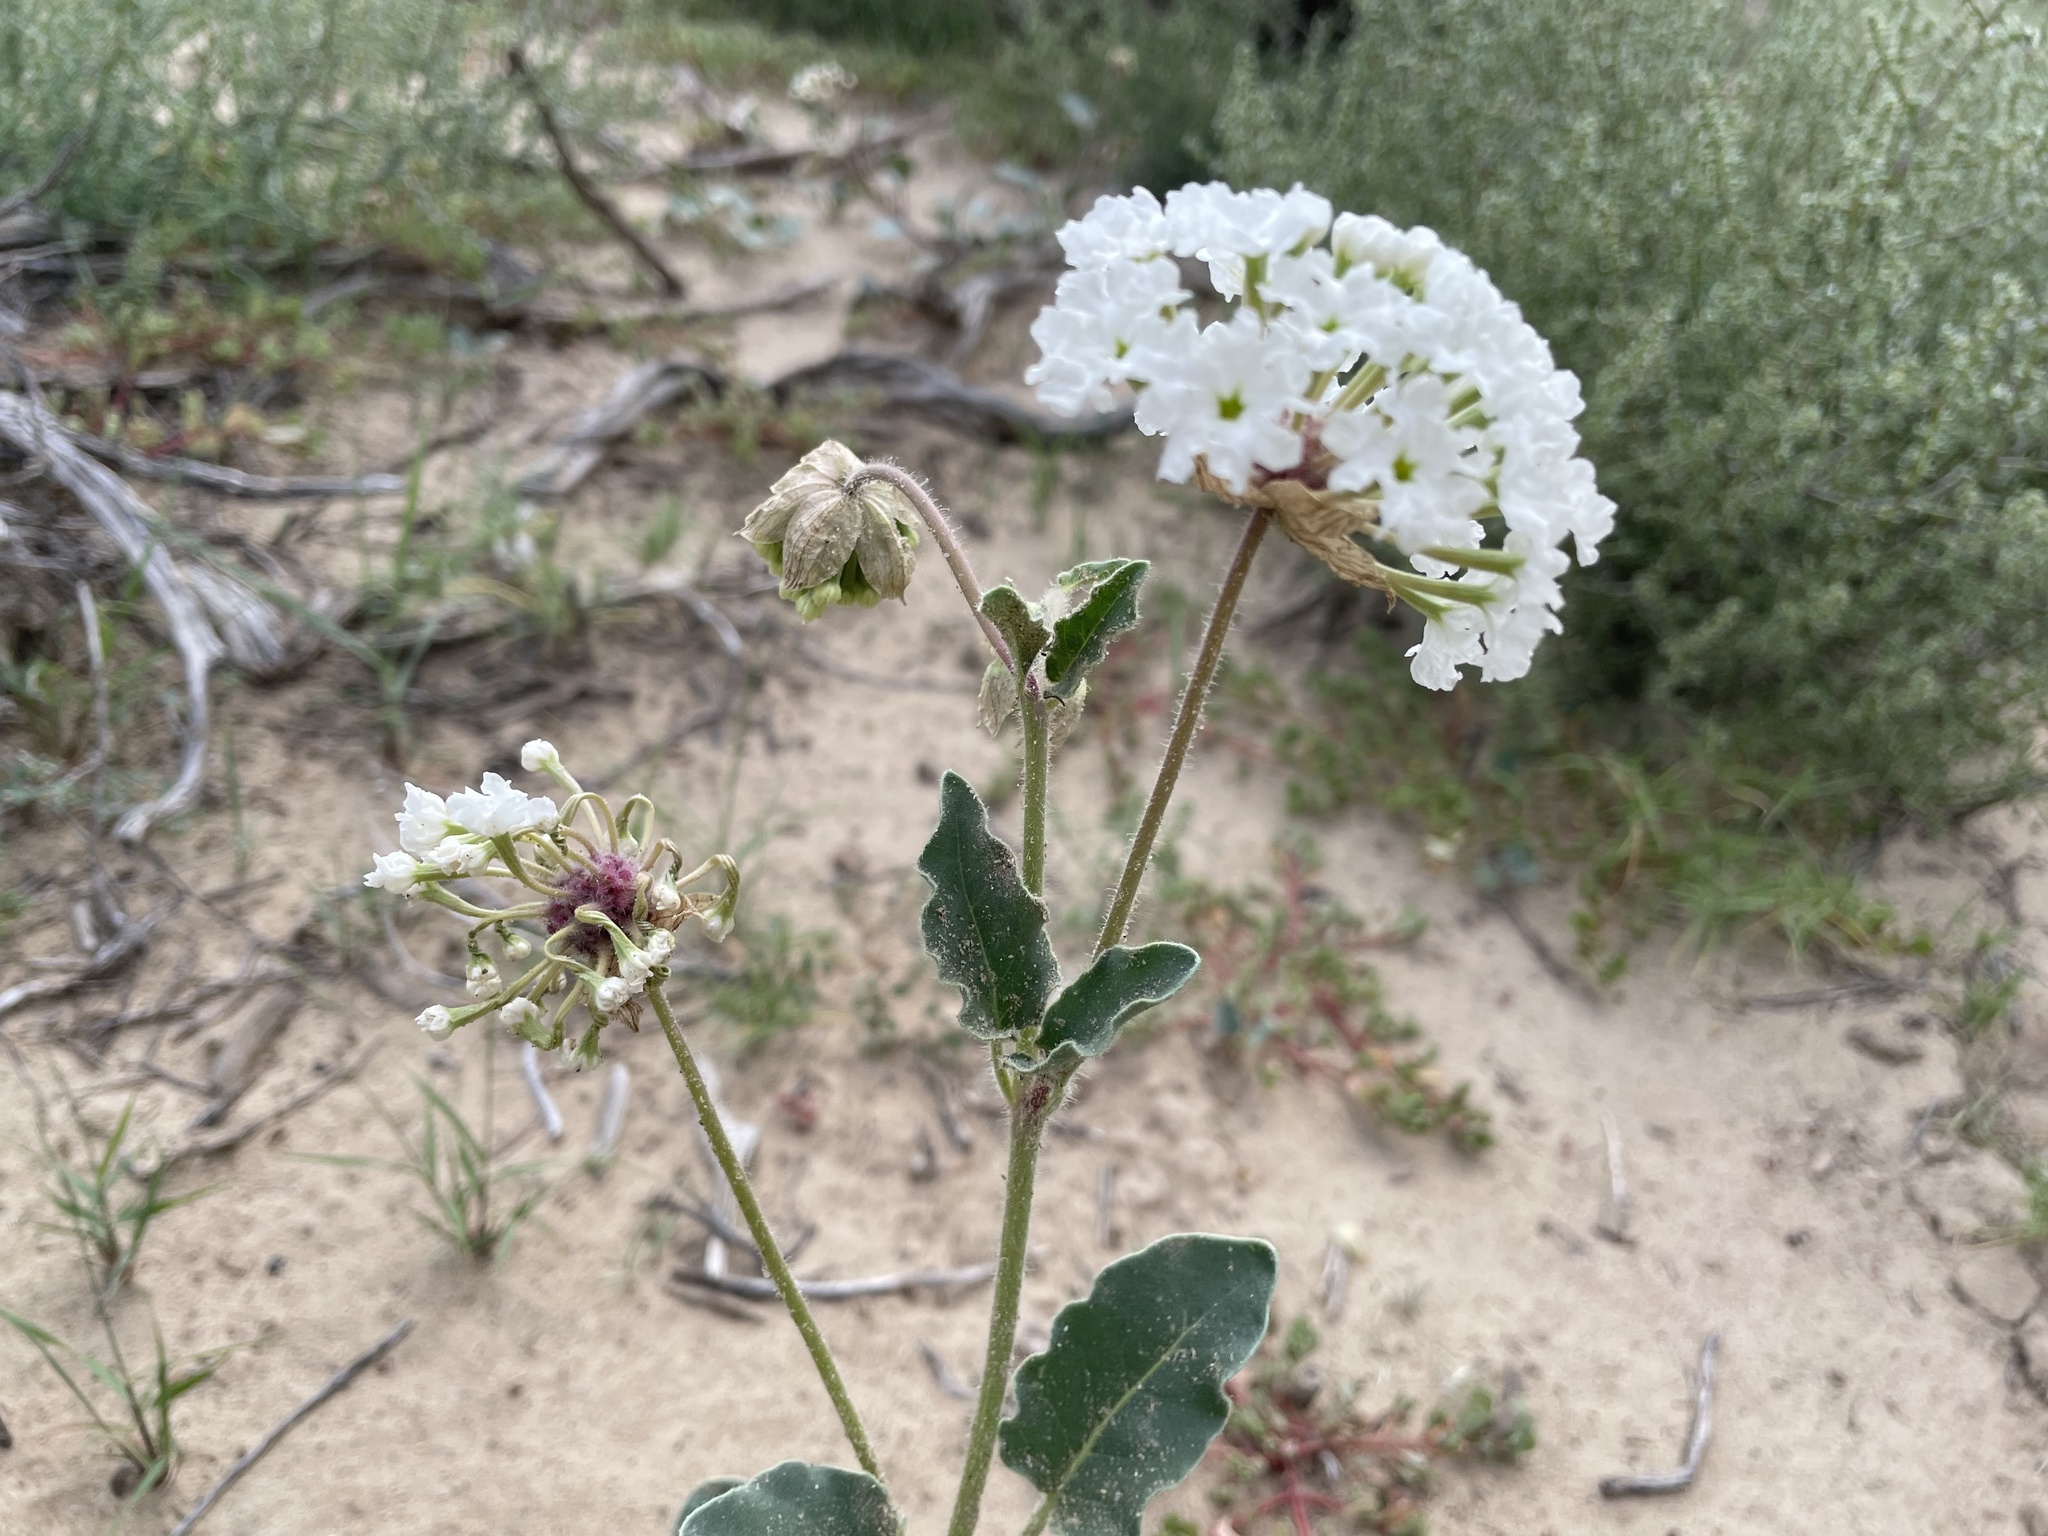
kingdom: Plantae
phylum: Tracheophyta
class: Magnoliopsida
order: Caryophyllales
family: Nyctaginaceae
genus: Abronia
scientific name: Abronia fragrans
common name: Fragrant sand-verbena
